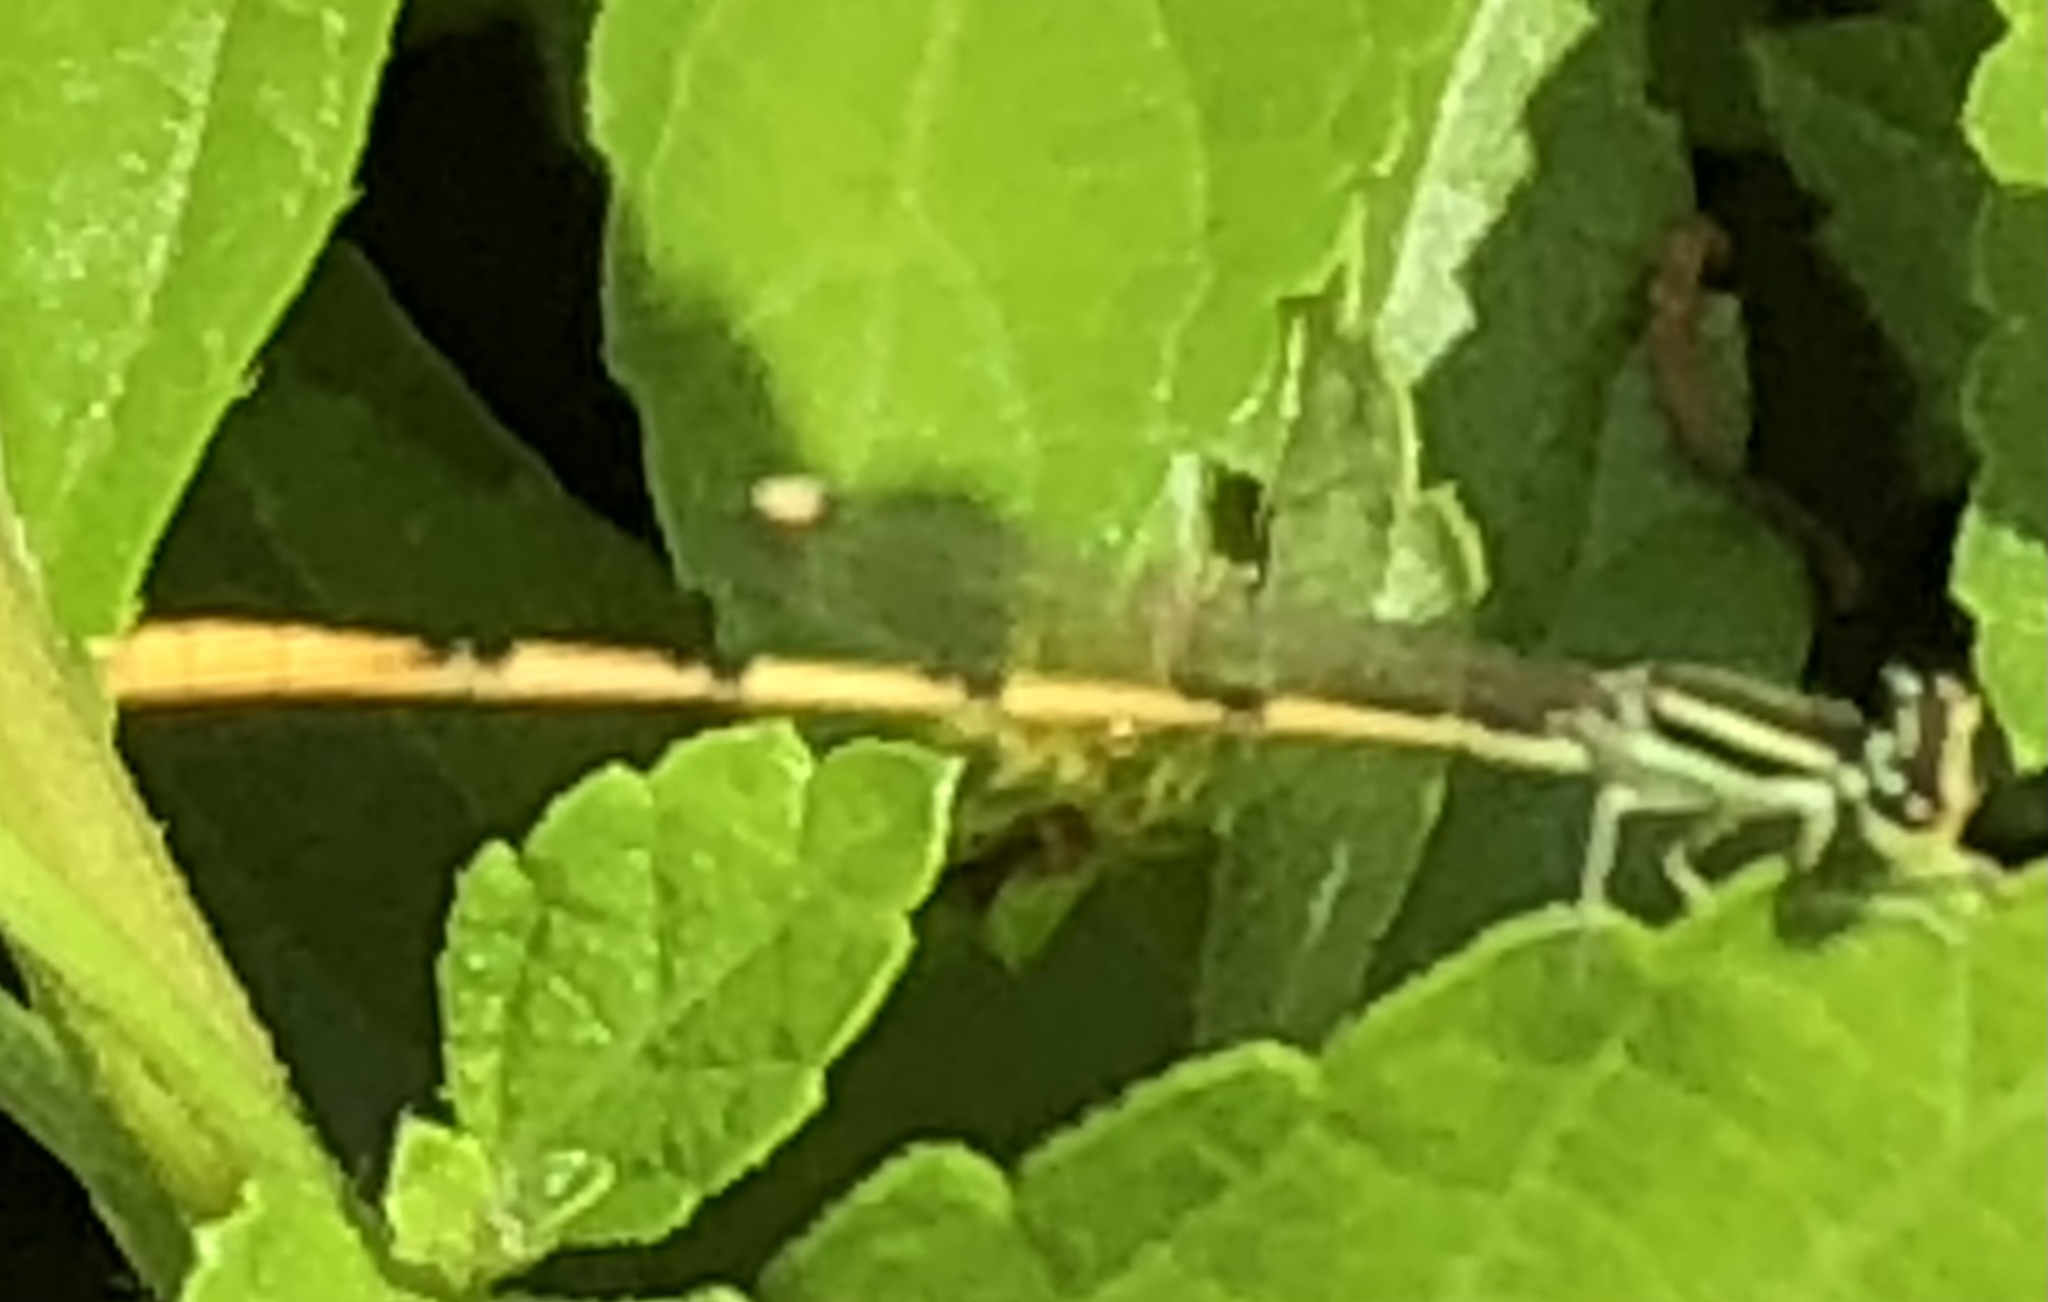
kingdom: Animalia
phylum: Arthropoda
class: Insecta
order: Odonata
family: Coenagrionidae
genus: Ischnura
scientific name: Ischnura hastata
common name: Citrine forktail
